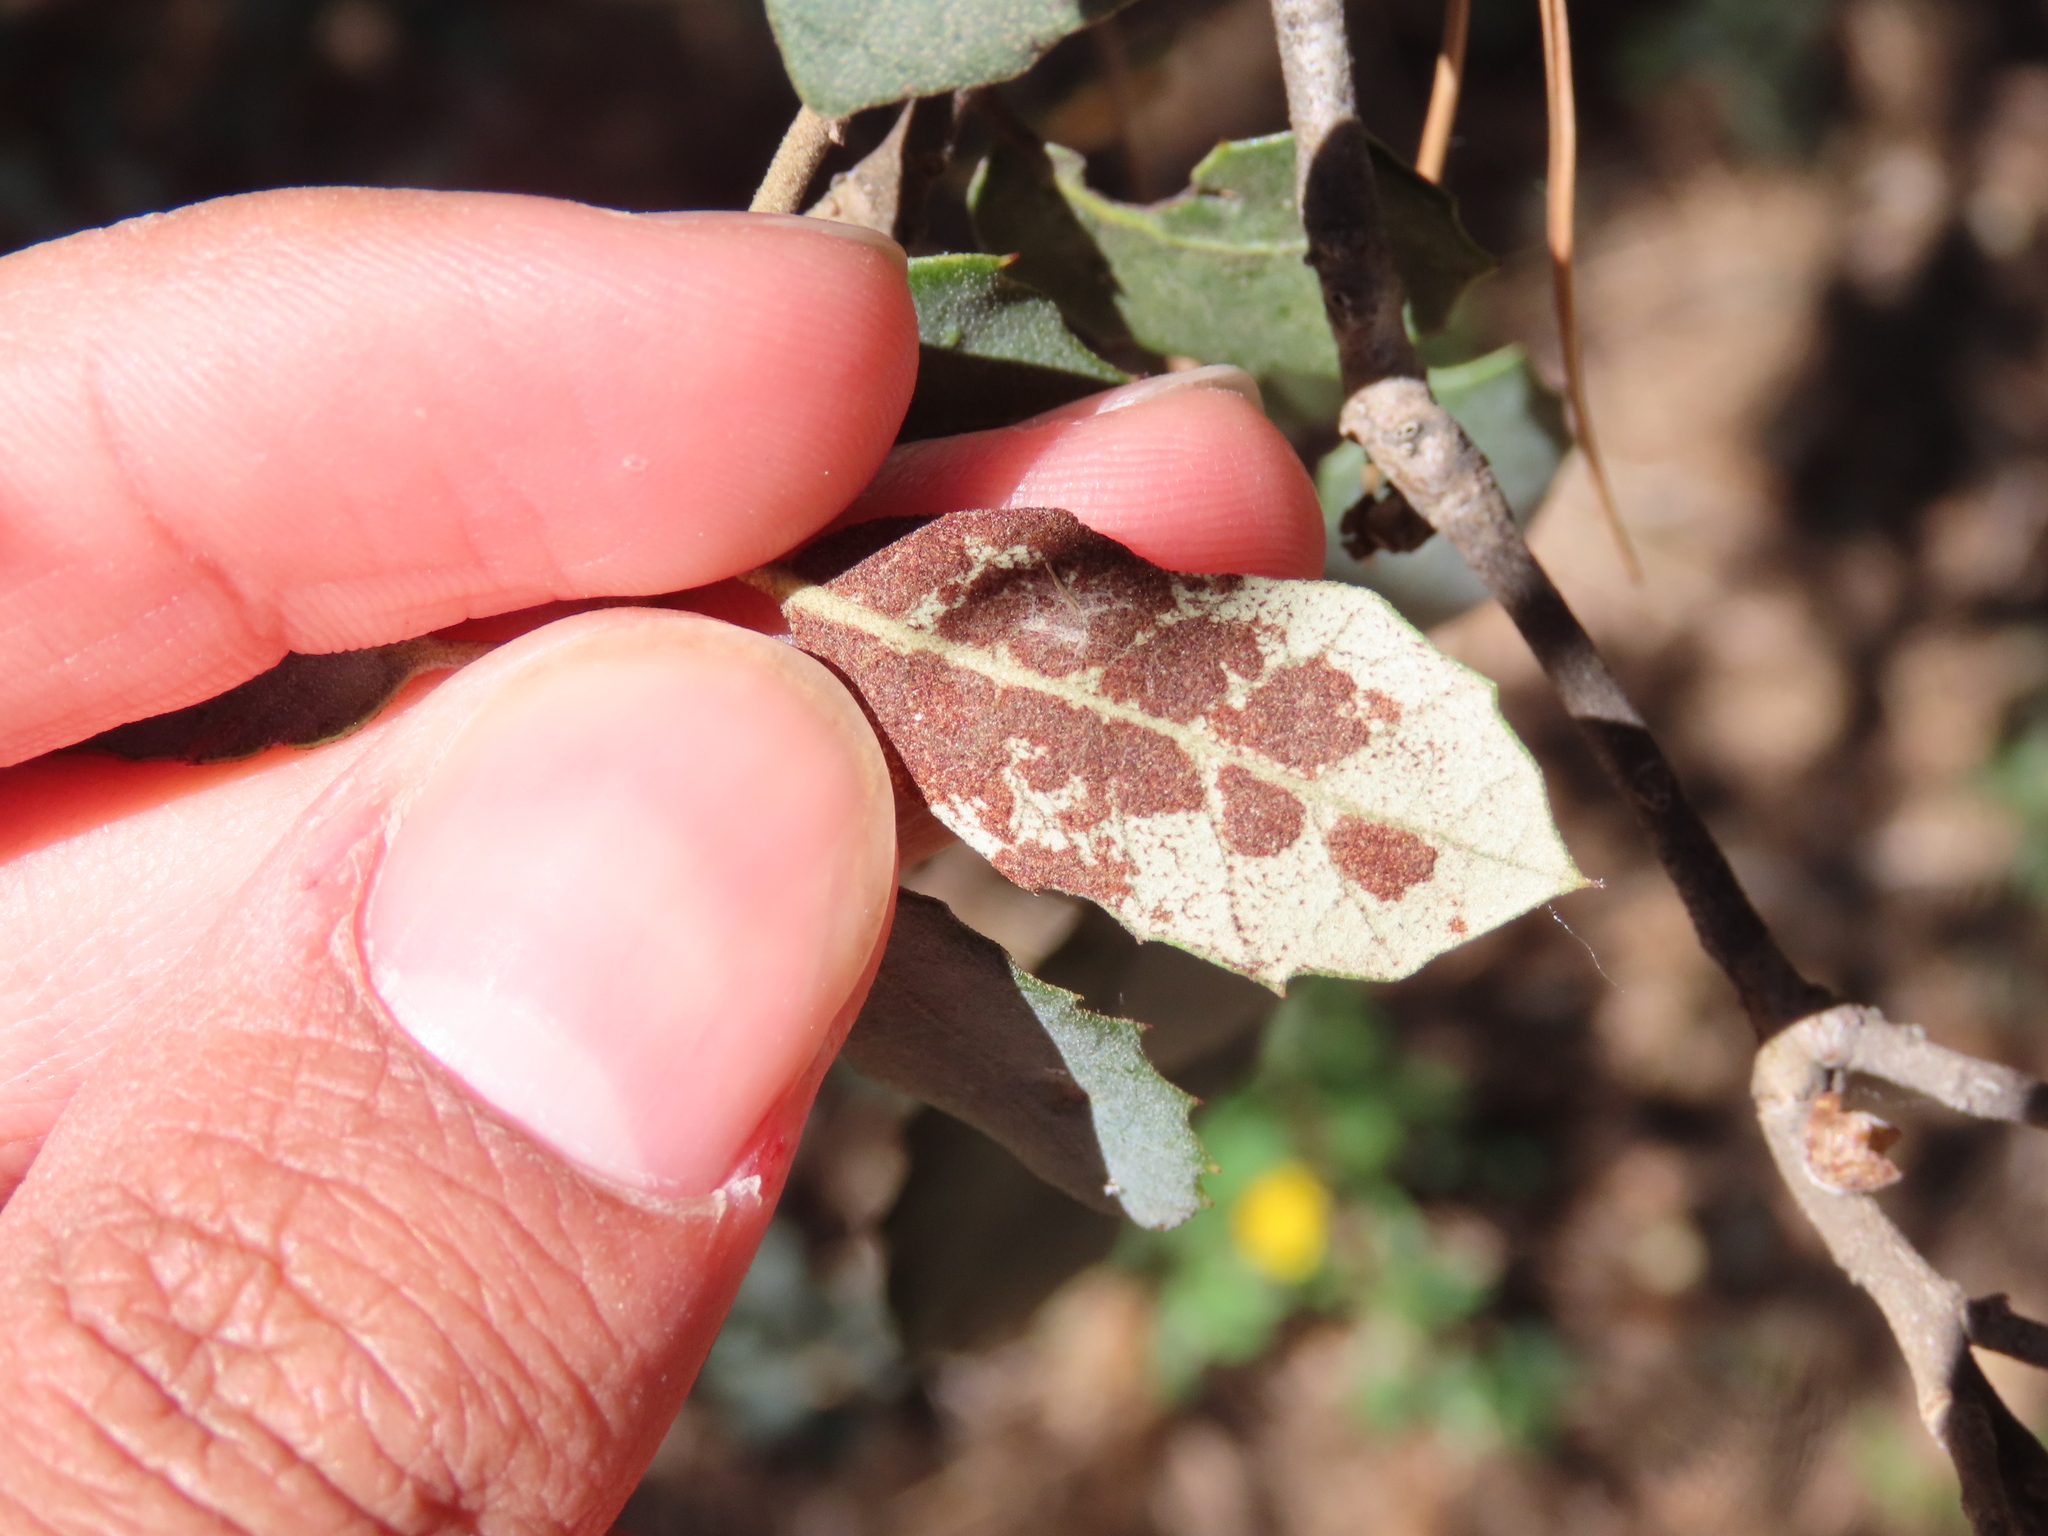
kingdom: Animalia
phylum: Arthropoda
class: Arachnida
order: Trombidiformes
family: Eriophyidae
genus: Aceria
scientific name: Aceria ilicis
